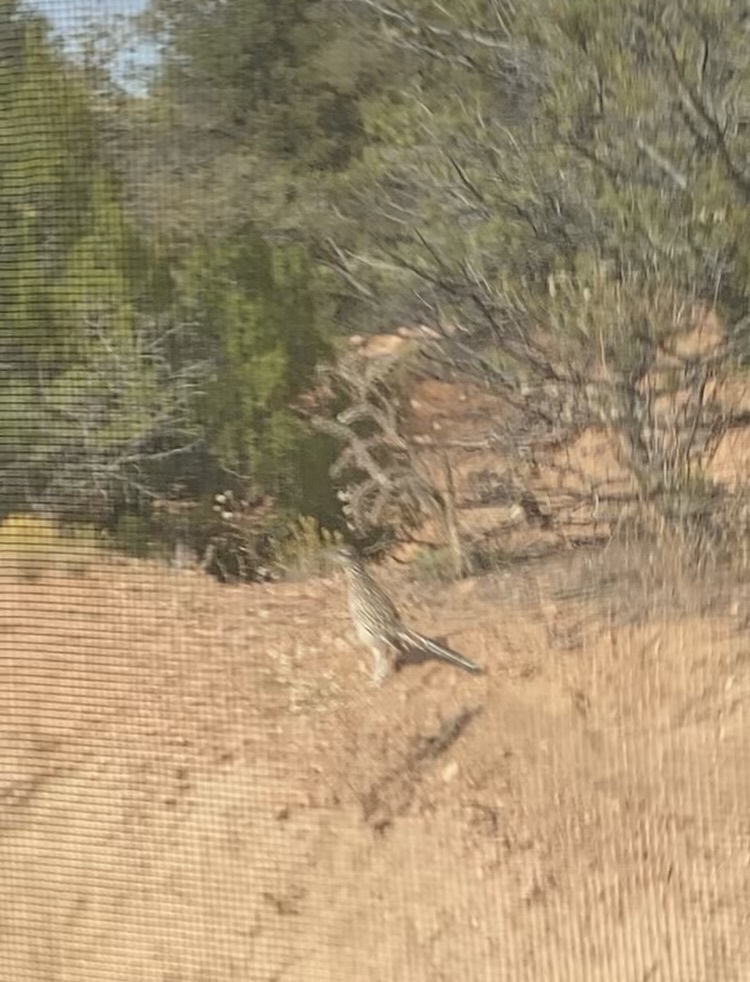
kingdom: Animalia
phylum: Chordata
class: Aves
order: Cuculiformes
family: Cuculidae
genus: Geococcyx
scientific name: Geococcyx californianus
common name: Greater roadrunner
